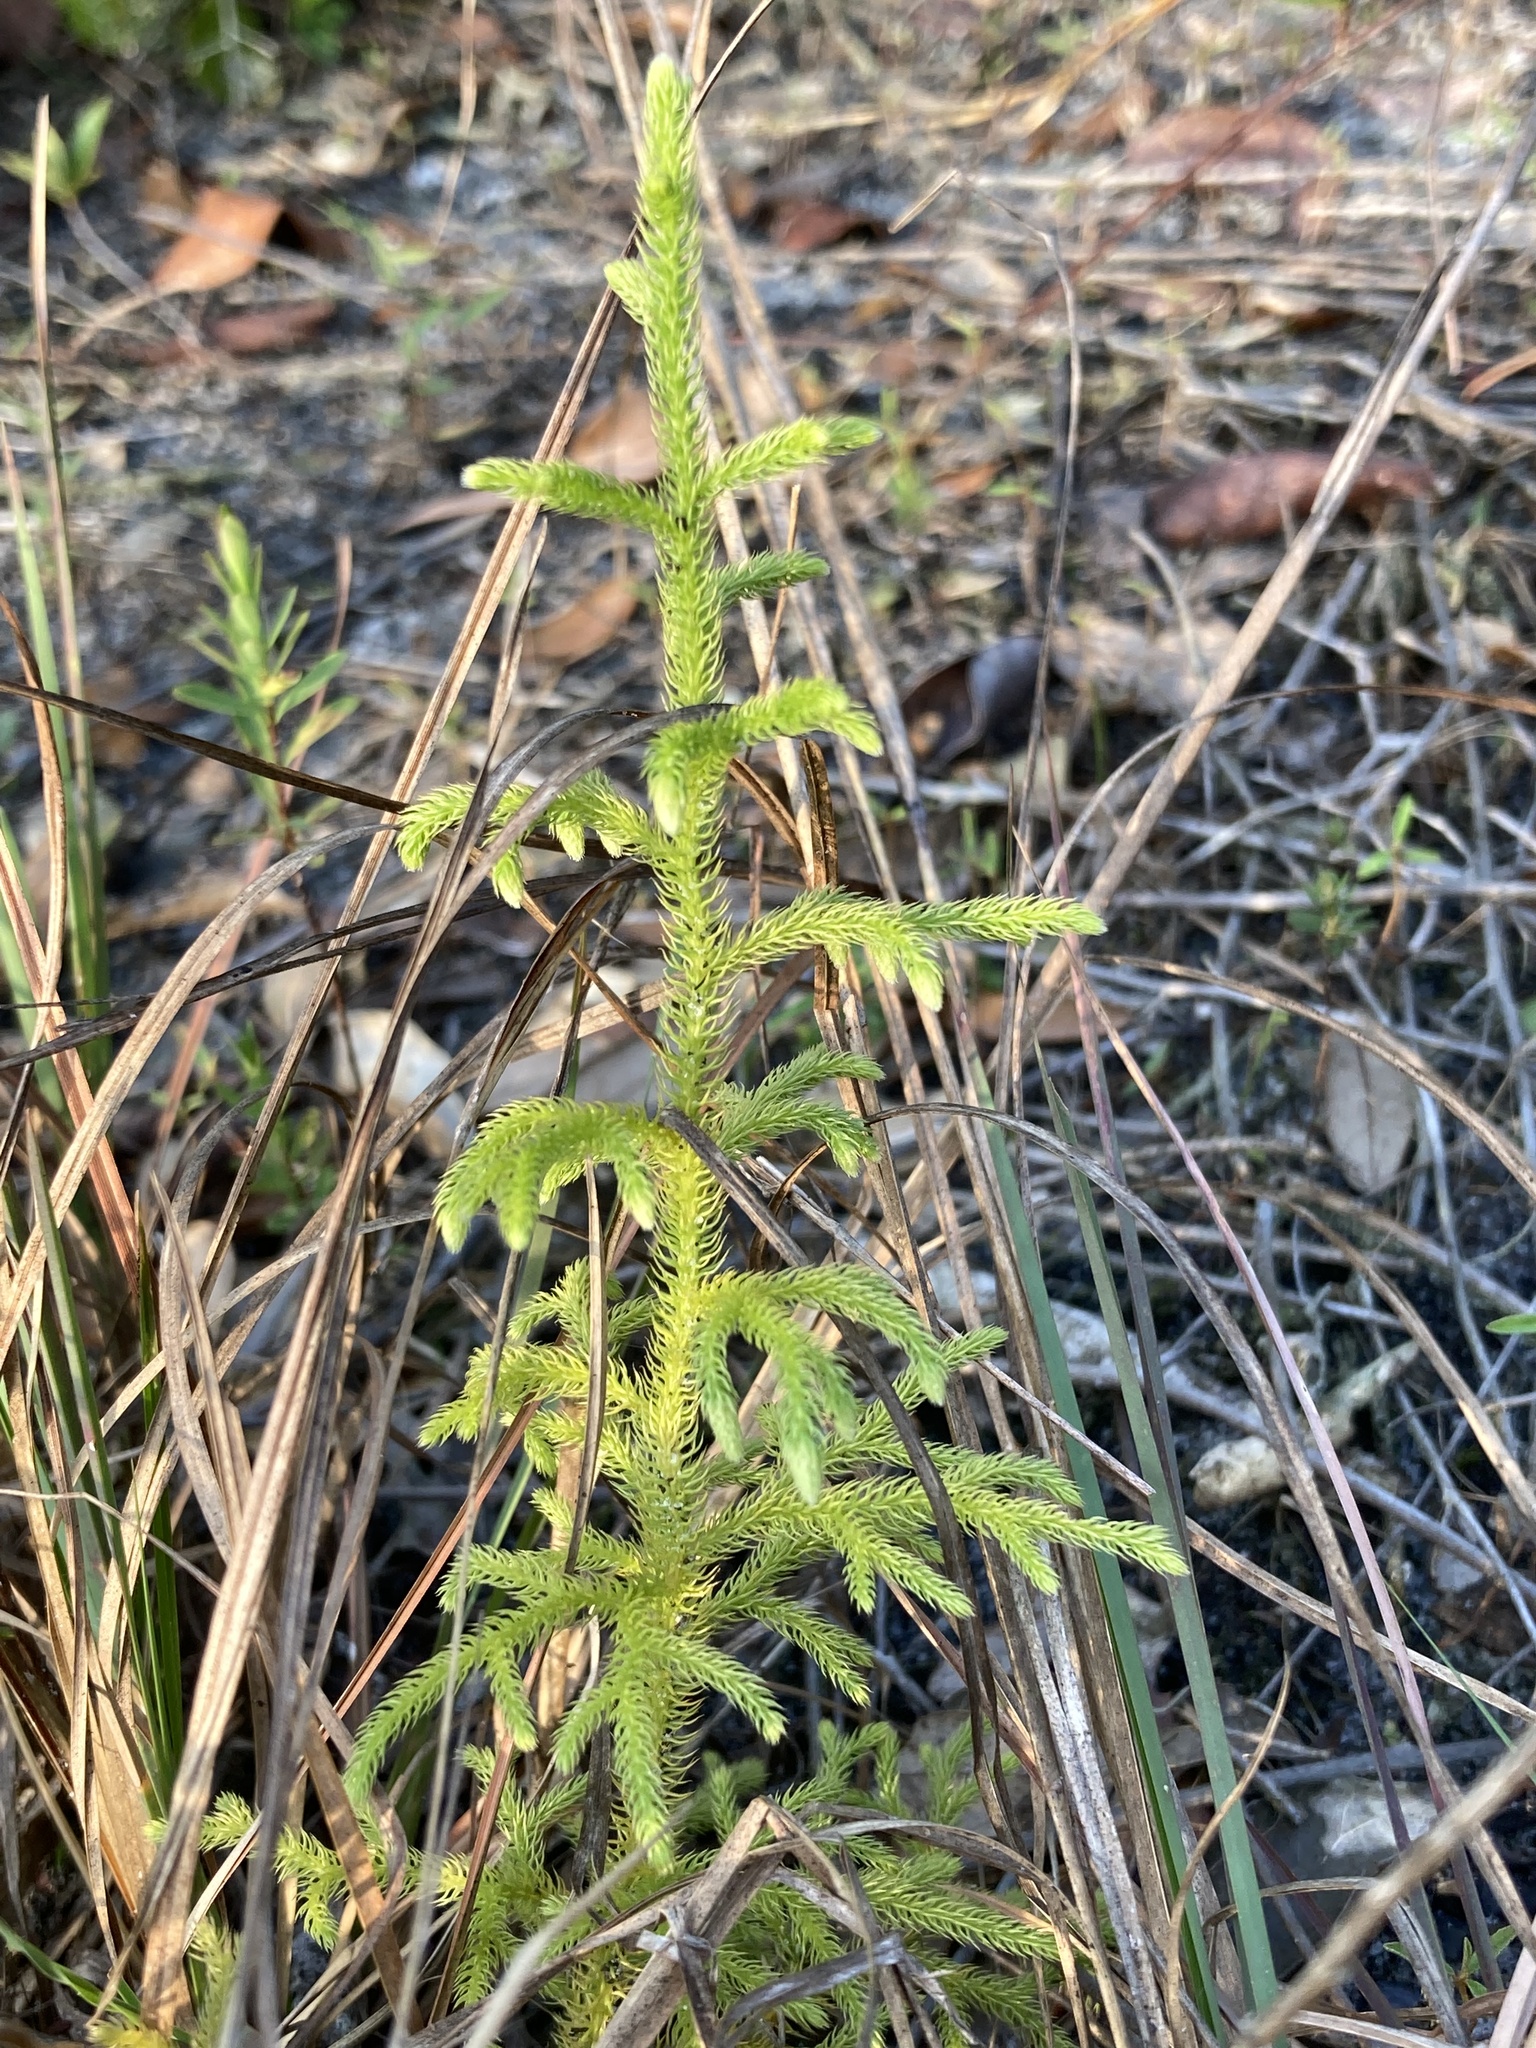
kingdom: Plantae
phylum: Tracheophyta
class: Lycopodiopsida
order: Lycopodiales
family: Lycopodiaceae
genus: Palhinhaea
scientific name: Palhinhaea cernua
